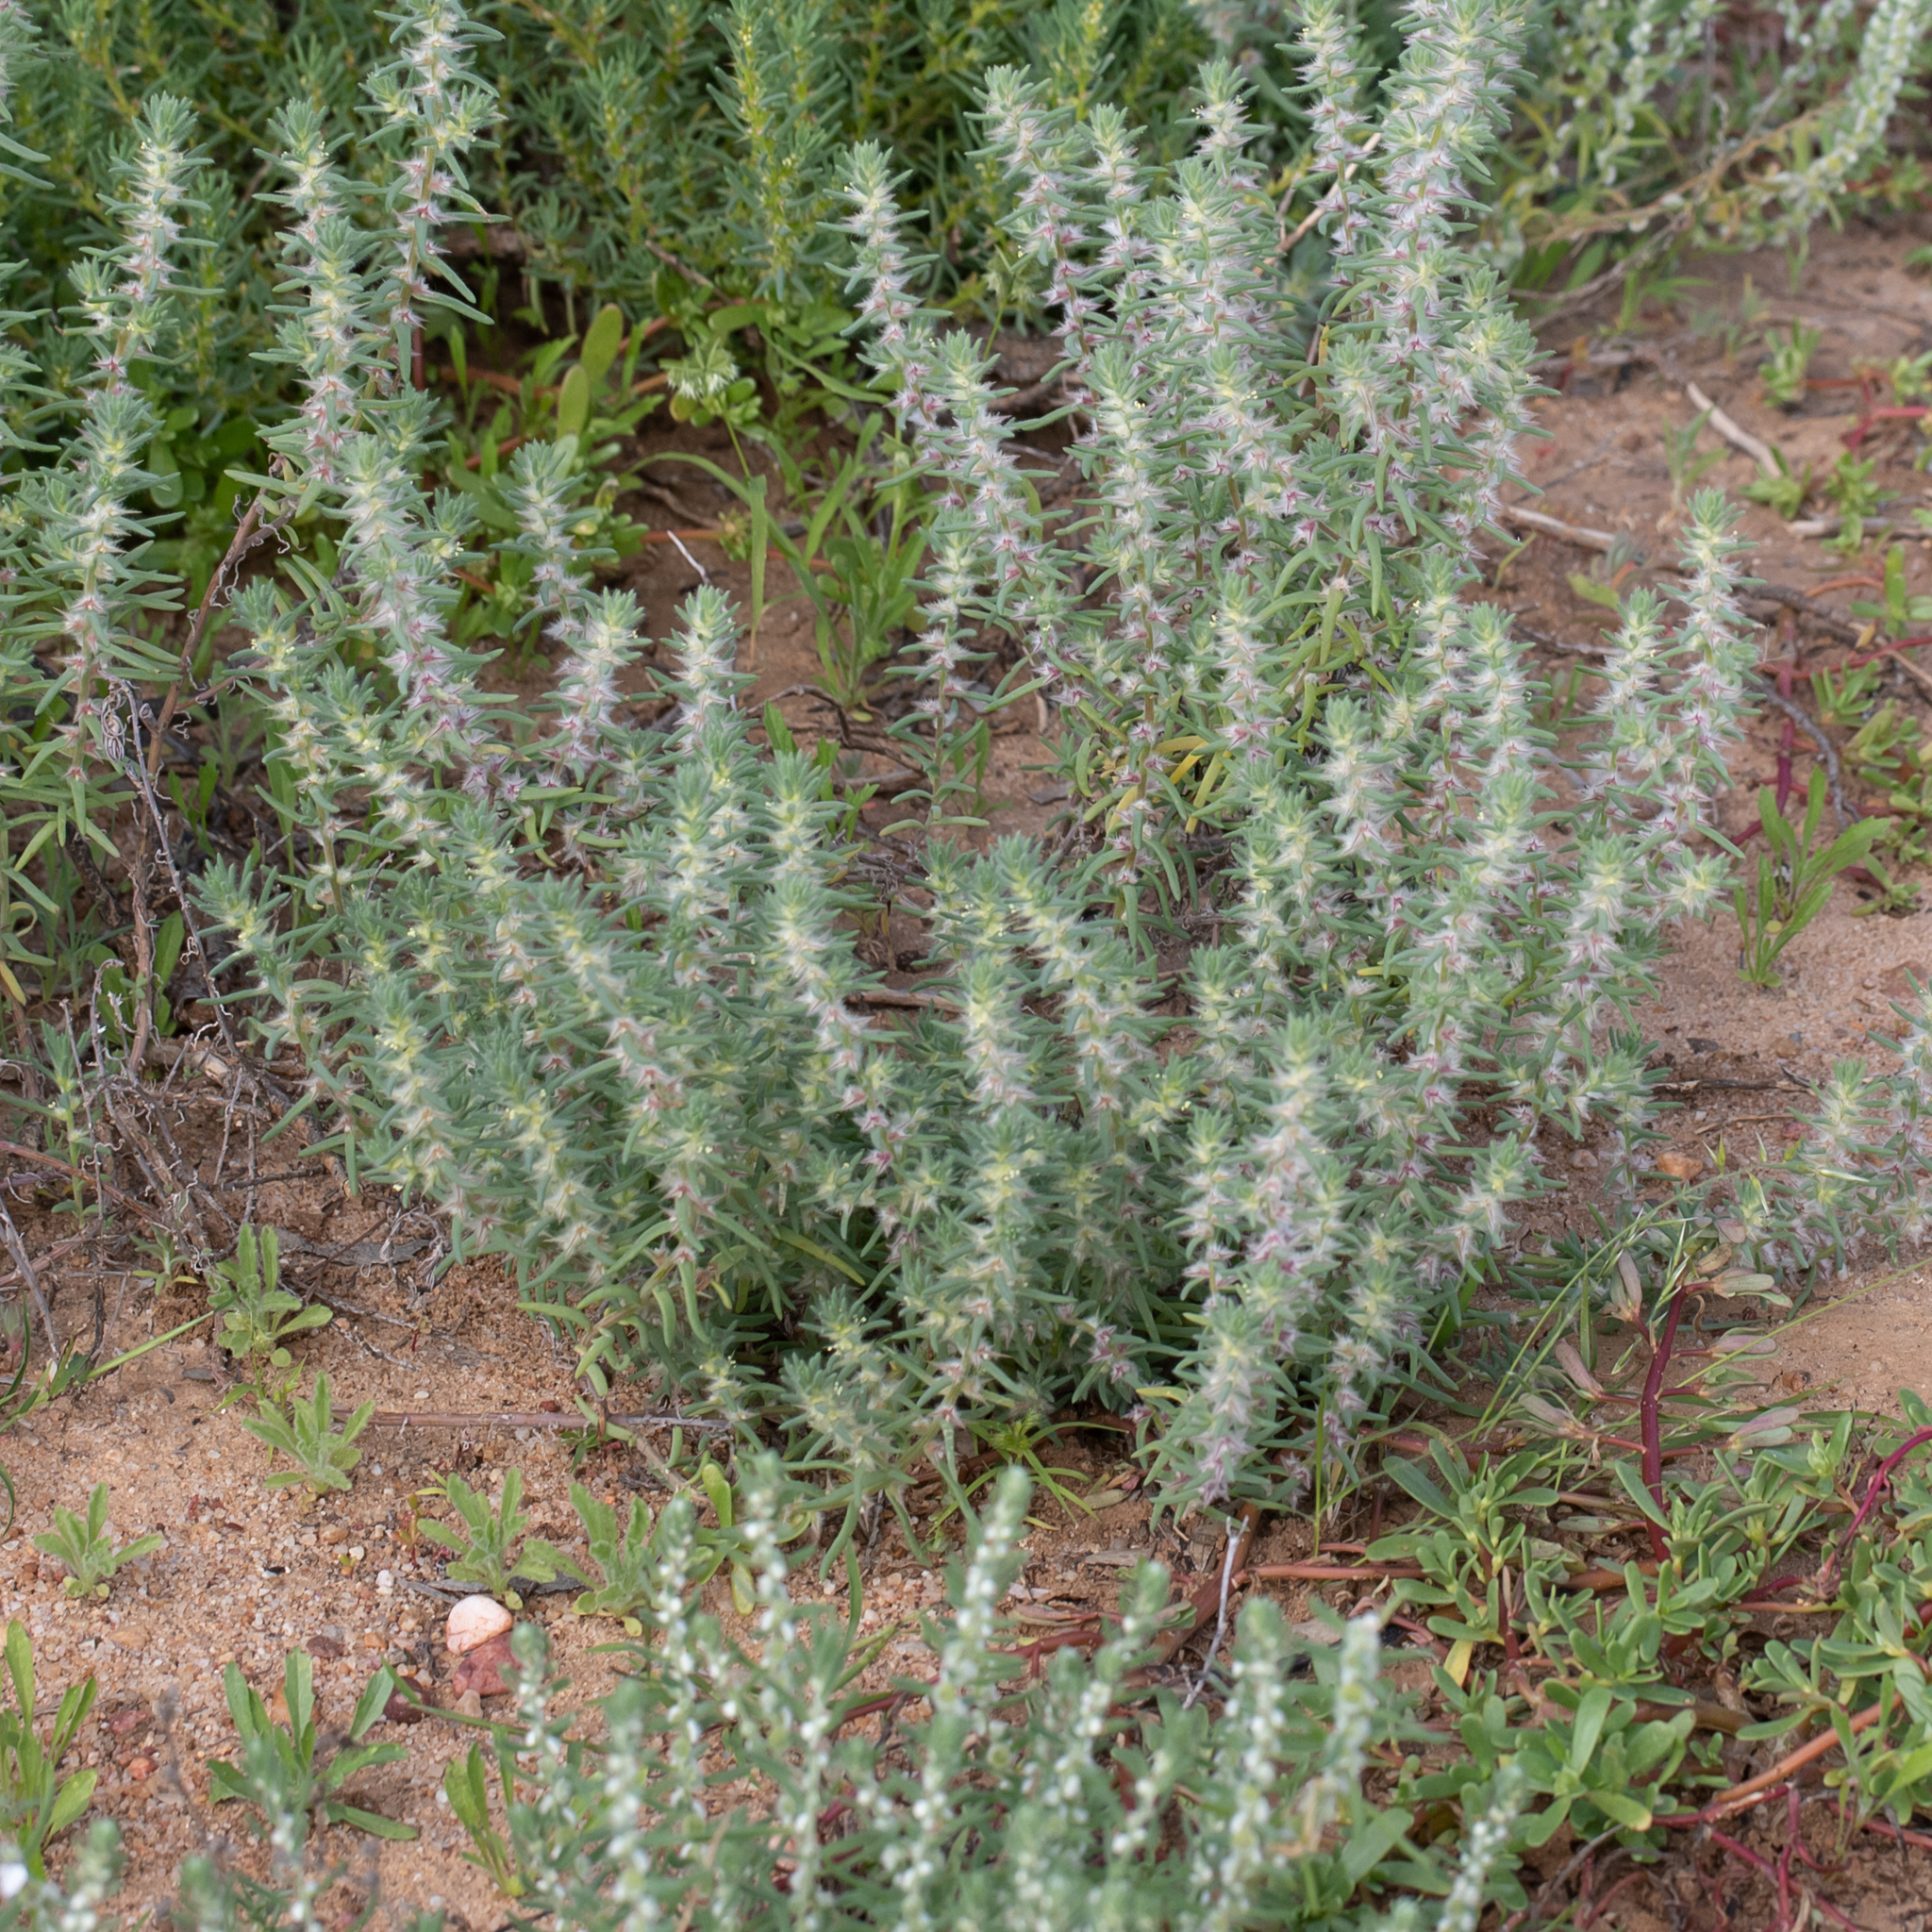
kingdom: Plantae
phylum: Tracheophyta
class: Magnoliopsida
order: Caryophyllales
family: Amaranthaceae
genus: Sclerolaena
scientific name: Sclerolaena lanicuspis
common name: Copperbur
